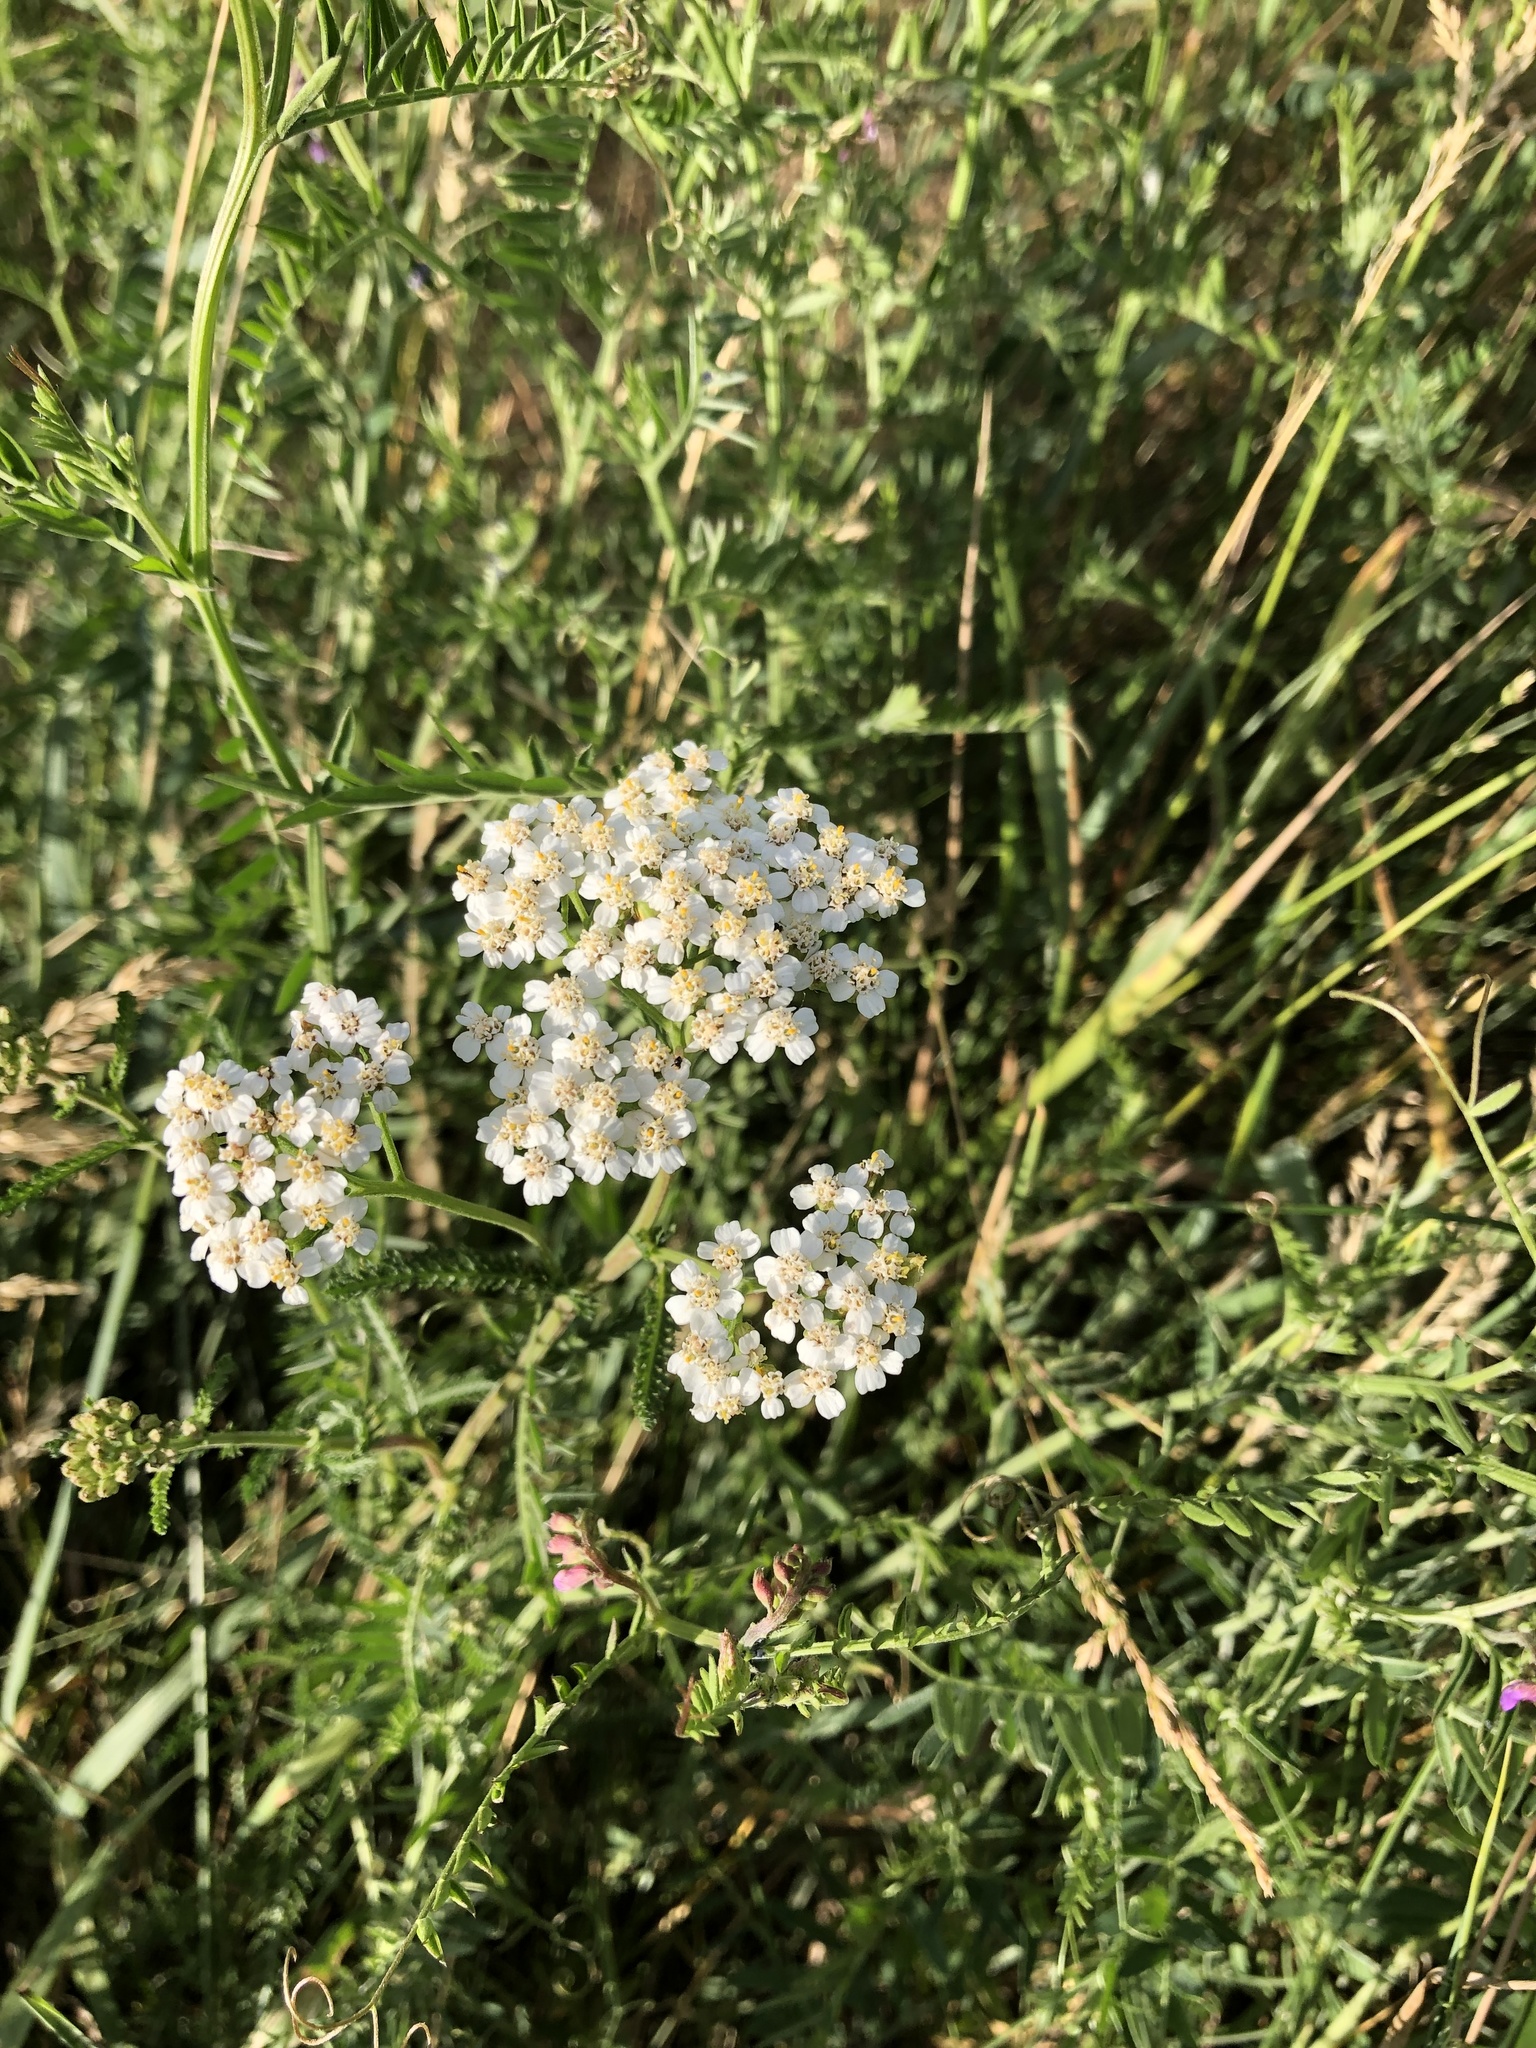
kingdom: Plantae
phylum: Tracheophyta
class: Magnoliopsida
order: Asterales
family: Asteraceae
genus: Achillea
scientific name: Achillea millefolium
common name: Yarrow
